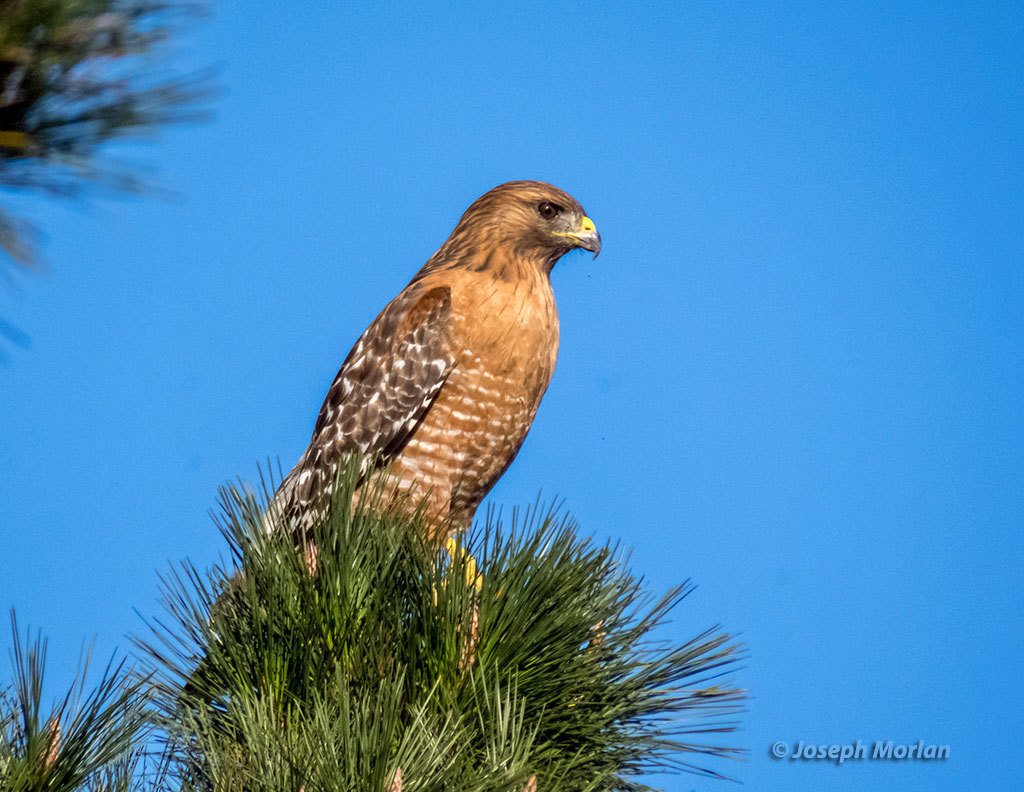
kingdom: Animalia
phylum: Chordata
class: Aves
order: Accipitriformes
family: Accipitridae
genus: Buteo
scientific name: Buteo lineatus
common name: Red-shouldered hawk
